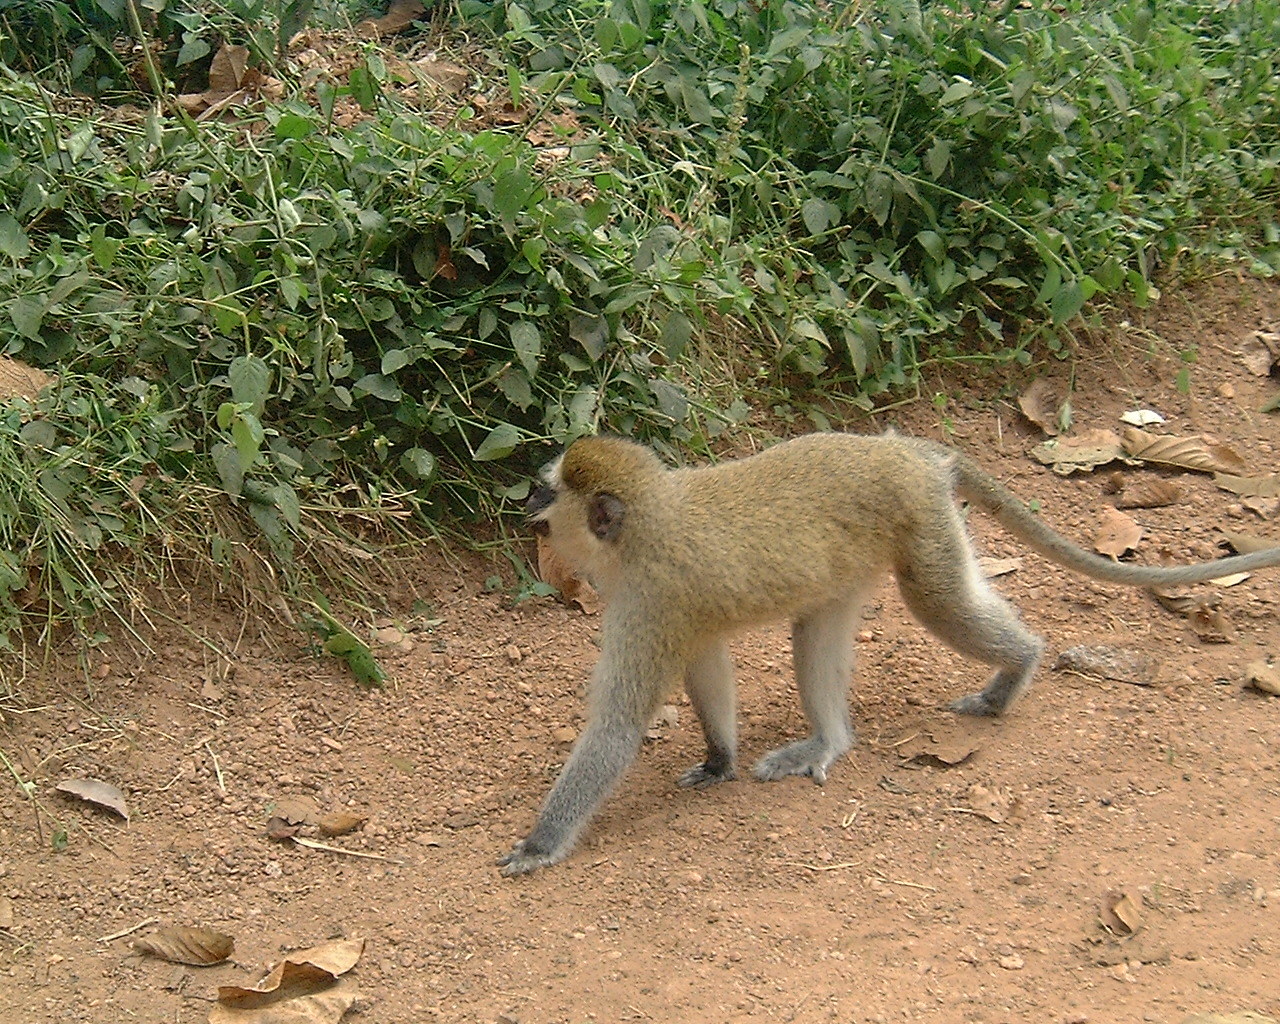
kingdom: Animalia
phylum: Chordata
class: Mammalia
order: Primates
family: Cercopithecidae
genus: Chlorocebus
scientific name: Chlorocebus tantalus
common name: Tantalus monkey
